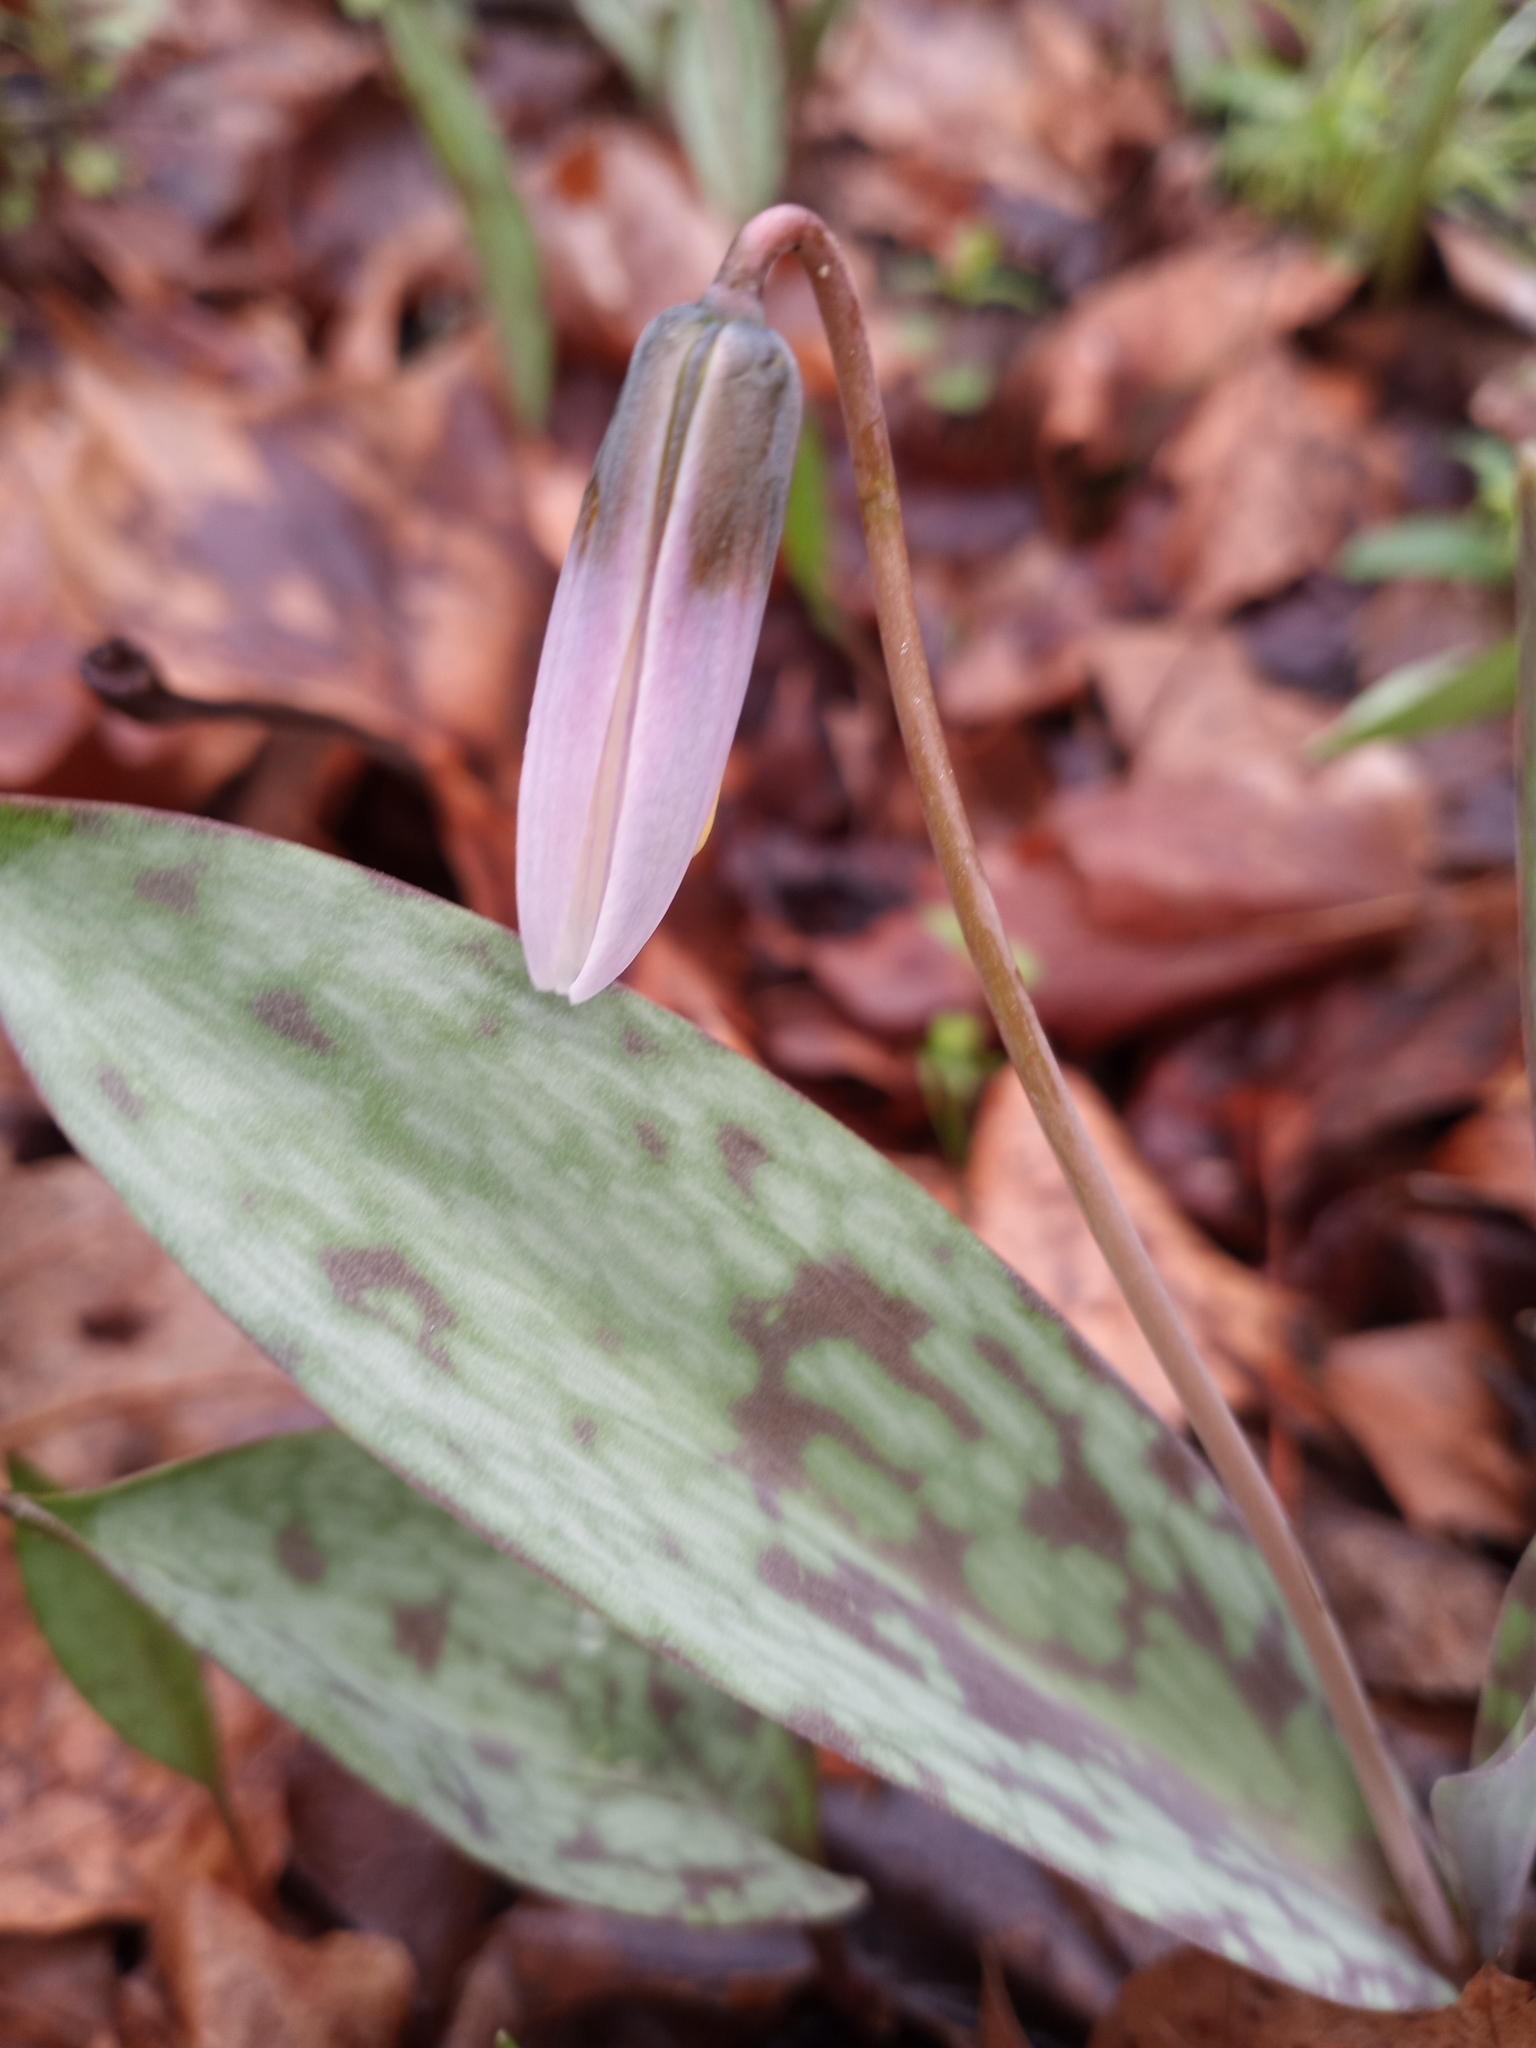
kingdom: Plantae
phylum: Tracheophyta
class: Liliopsida
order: Liliales
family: Liliaceae
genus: Erythronium
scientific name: Erythronium albidum
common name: White trout-lily
